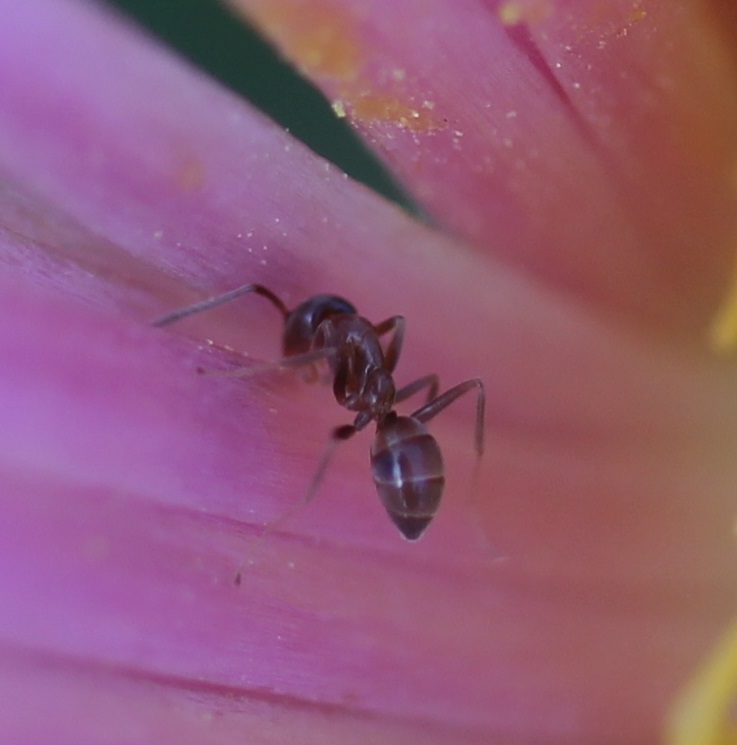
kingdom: Animalia
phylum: Arthropoda
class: Insecta
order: Hymenoptera
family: Formicidae
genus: Linepithema
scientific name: Linepithema humile
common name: Argentine ant
